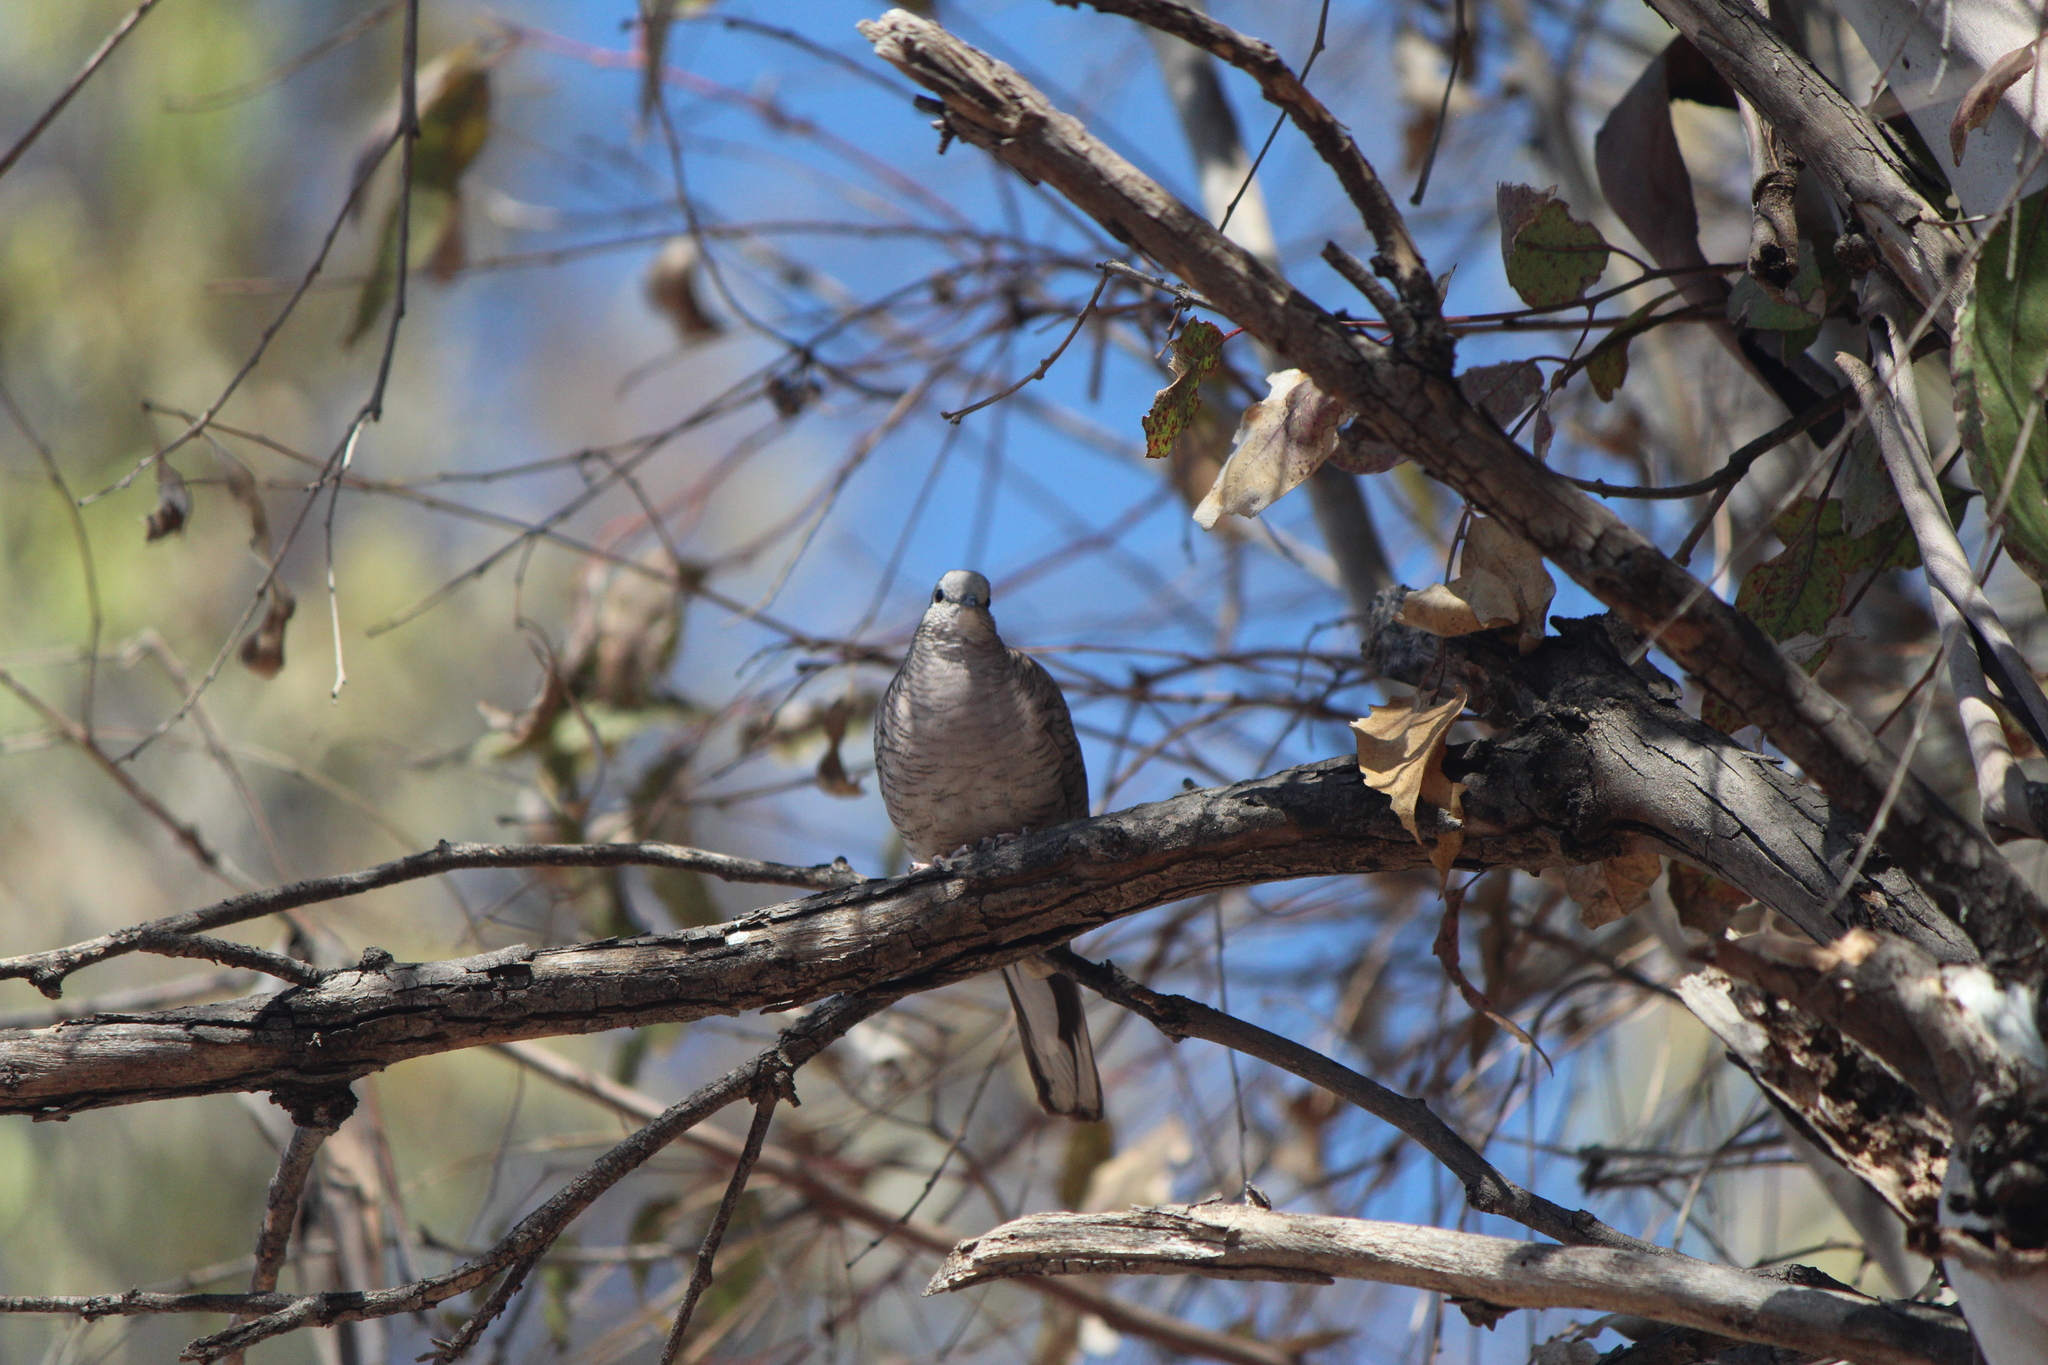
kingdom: Animalia
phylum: Chordata
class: Aves
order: Columbiformes
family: Columbidae
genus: Columbina
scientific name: Columbina inca
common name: Inca dove
